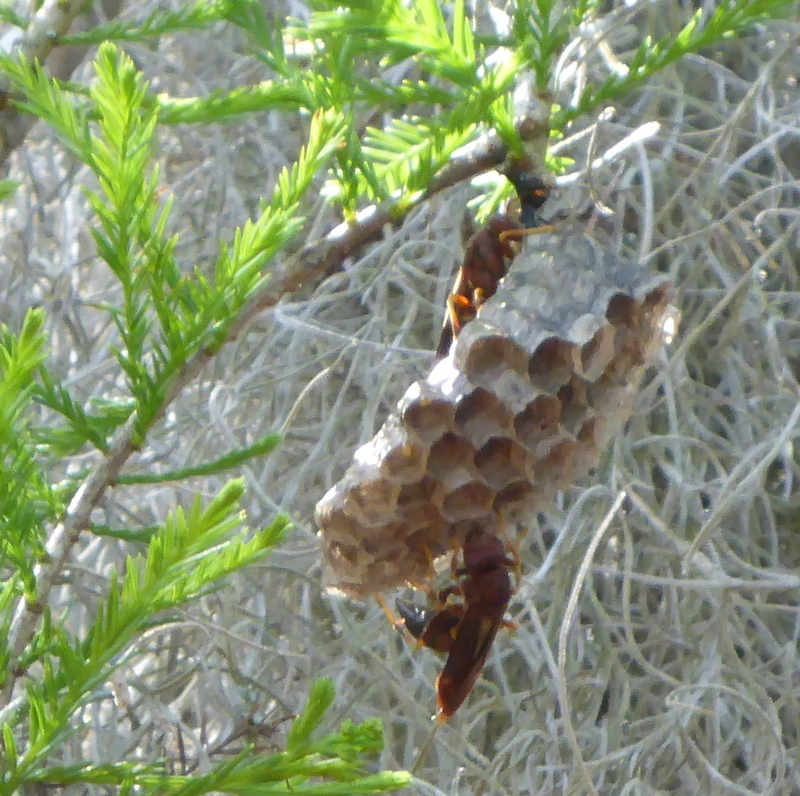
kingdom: Animalia
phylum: Arthropoda
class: Insecta
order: Hymenoptera
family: Eumenidae
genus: Polistes
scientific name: Polistes annularis
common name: Ringed paper wasp
